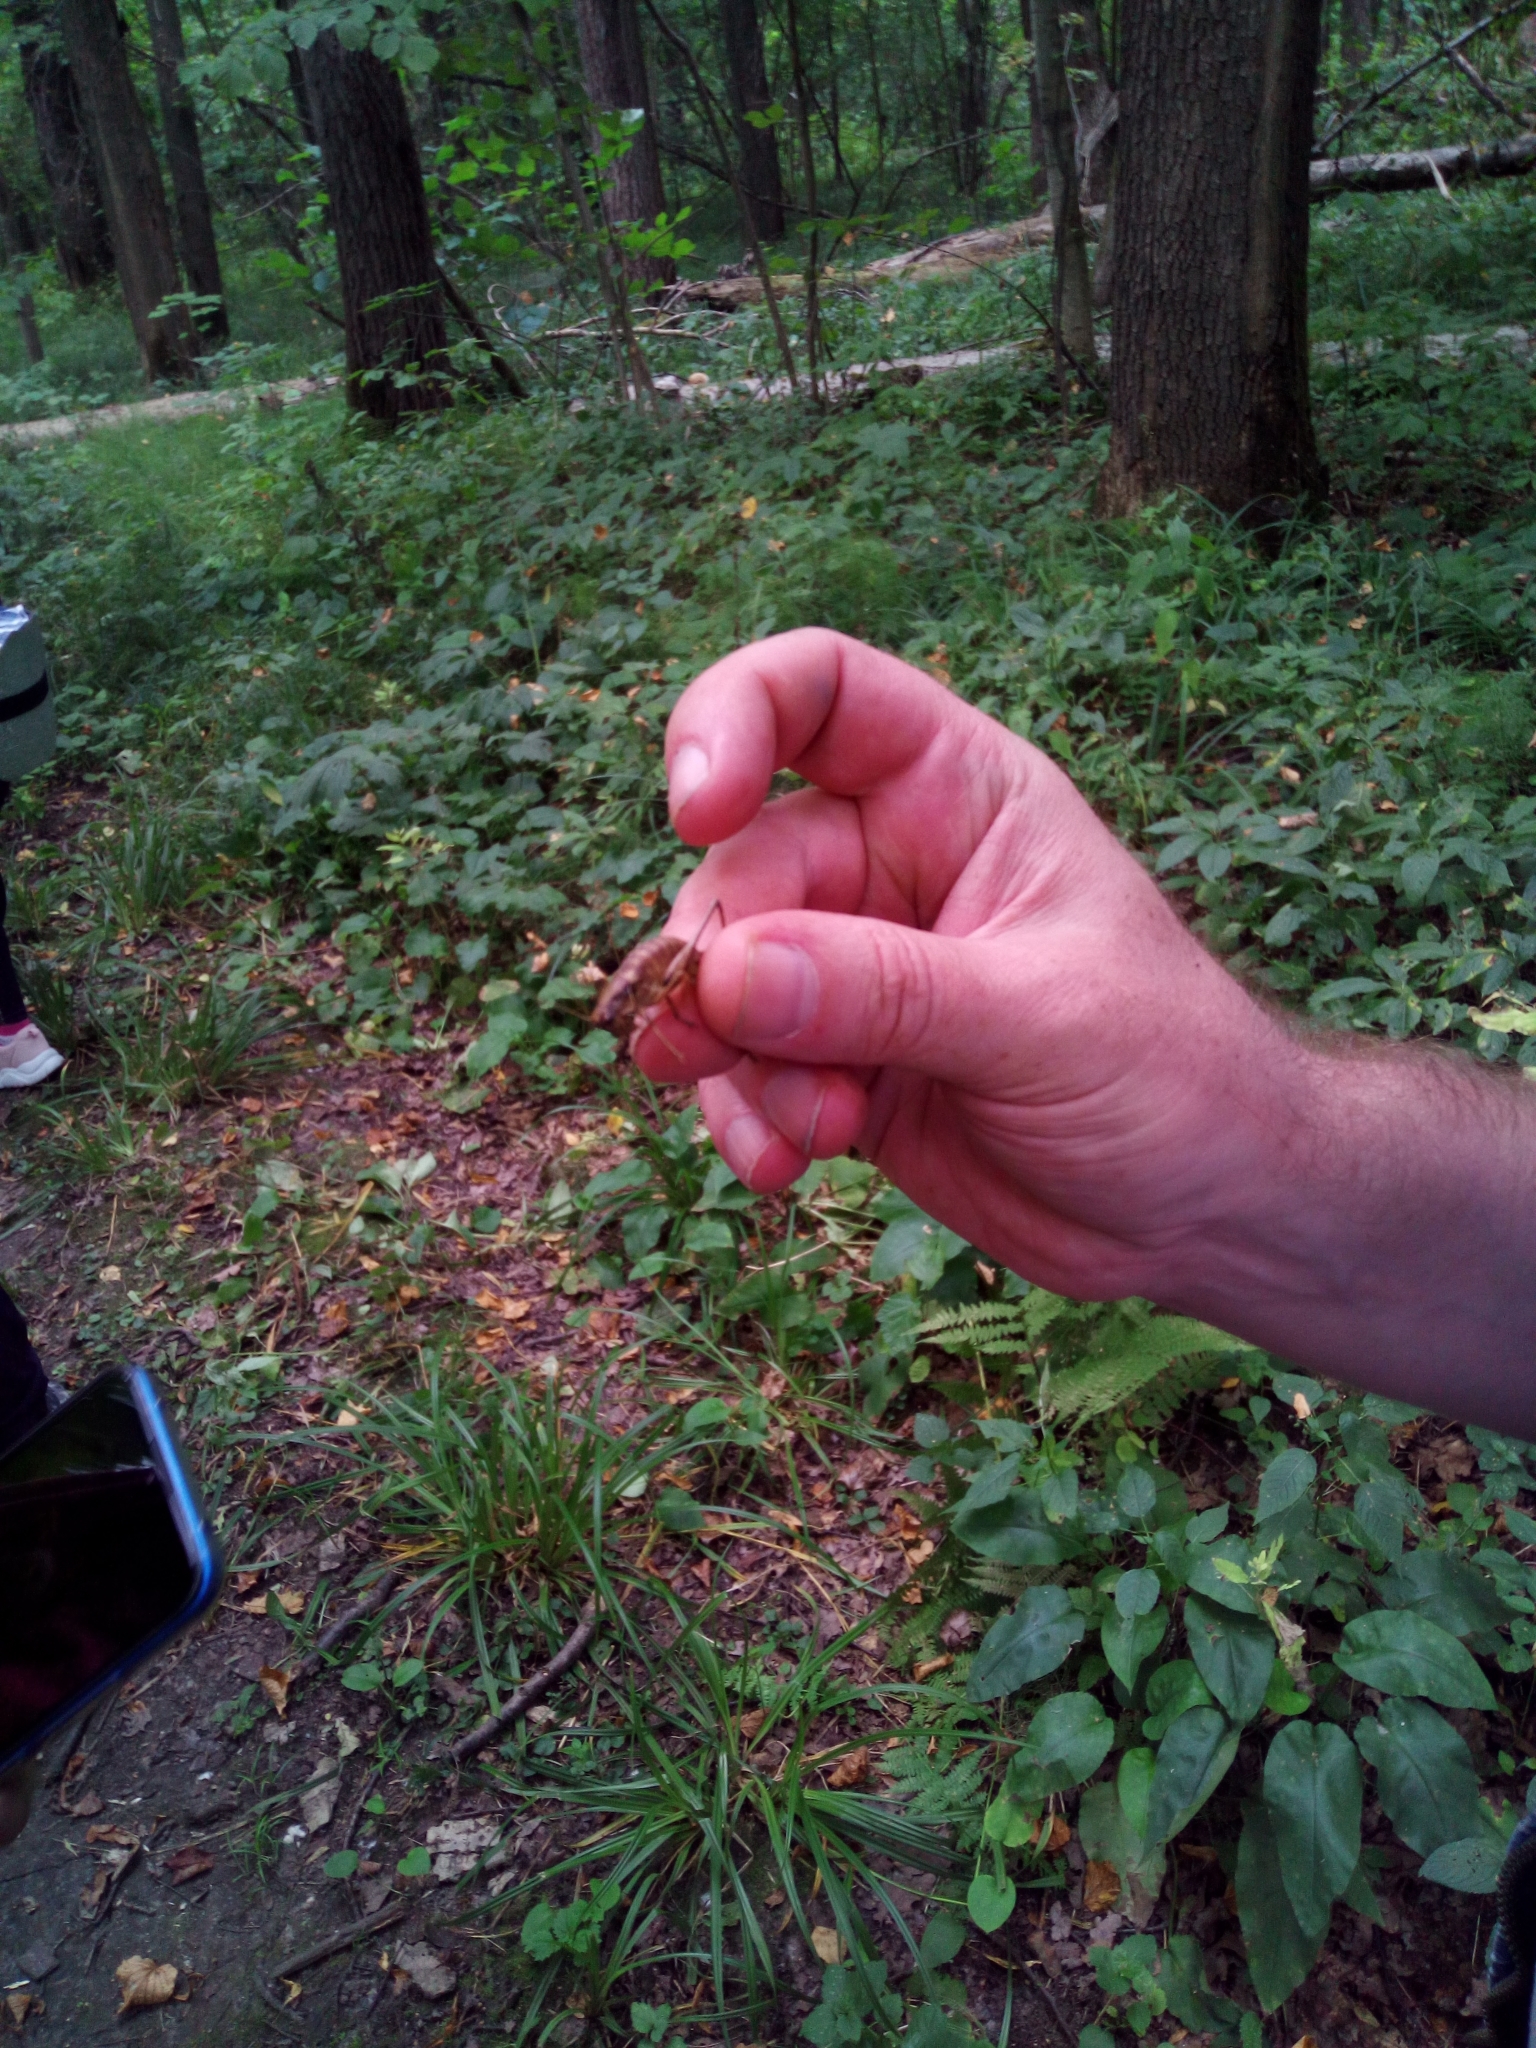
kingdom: Animalia
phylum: Arthropoda
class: Insecta
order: Orthoptera
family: Tettigoniidae
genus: Pholidoptera
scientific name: Pholidoptera griseoaptera
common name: Dark bush-cricket
